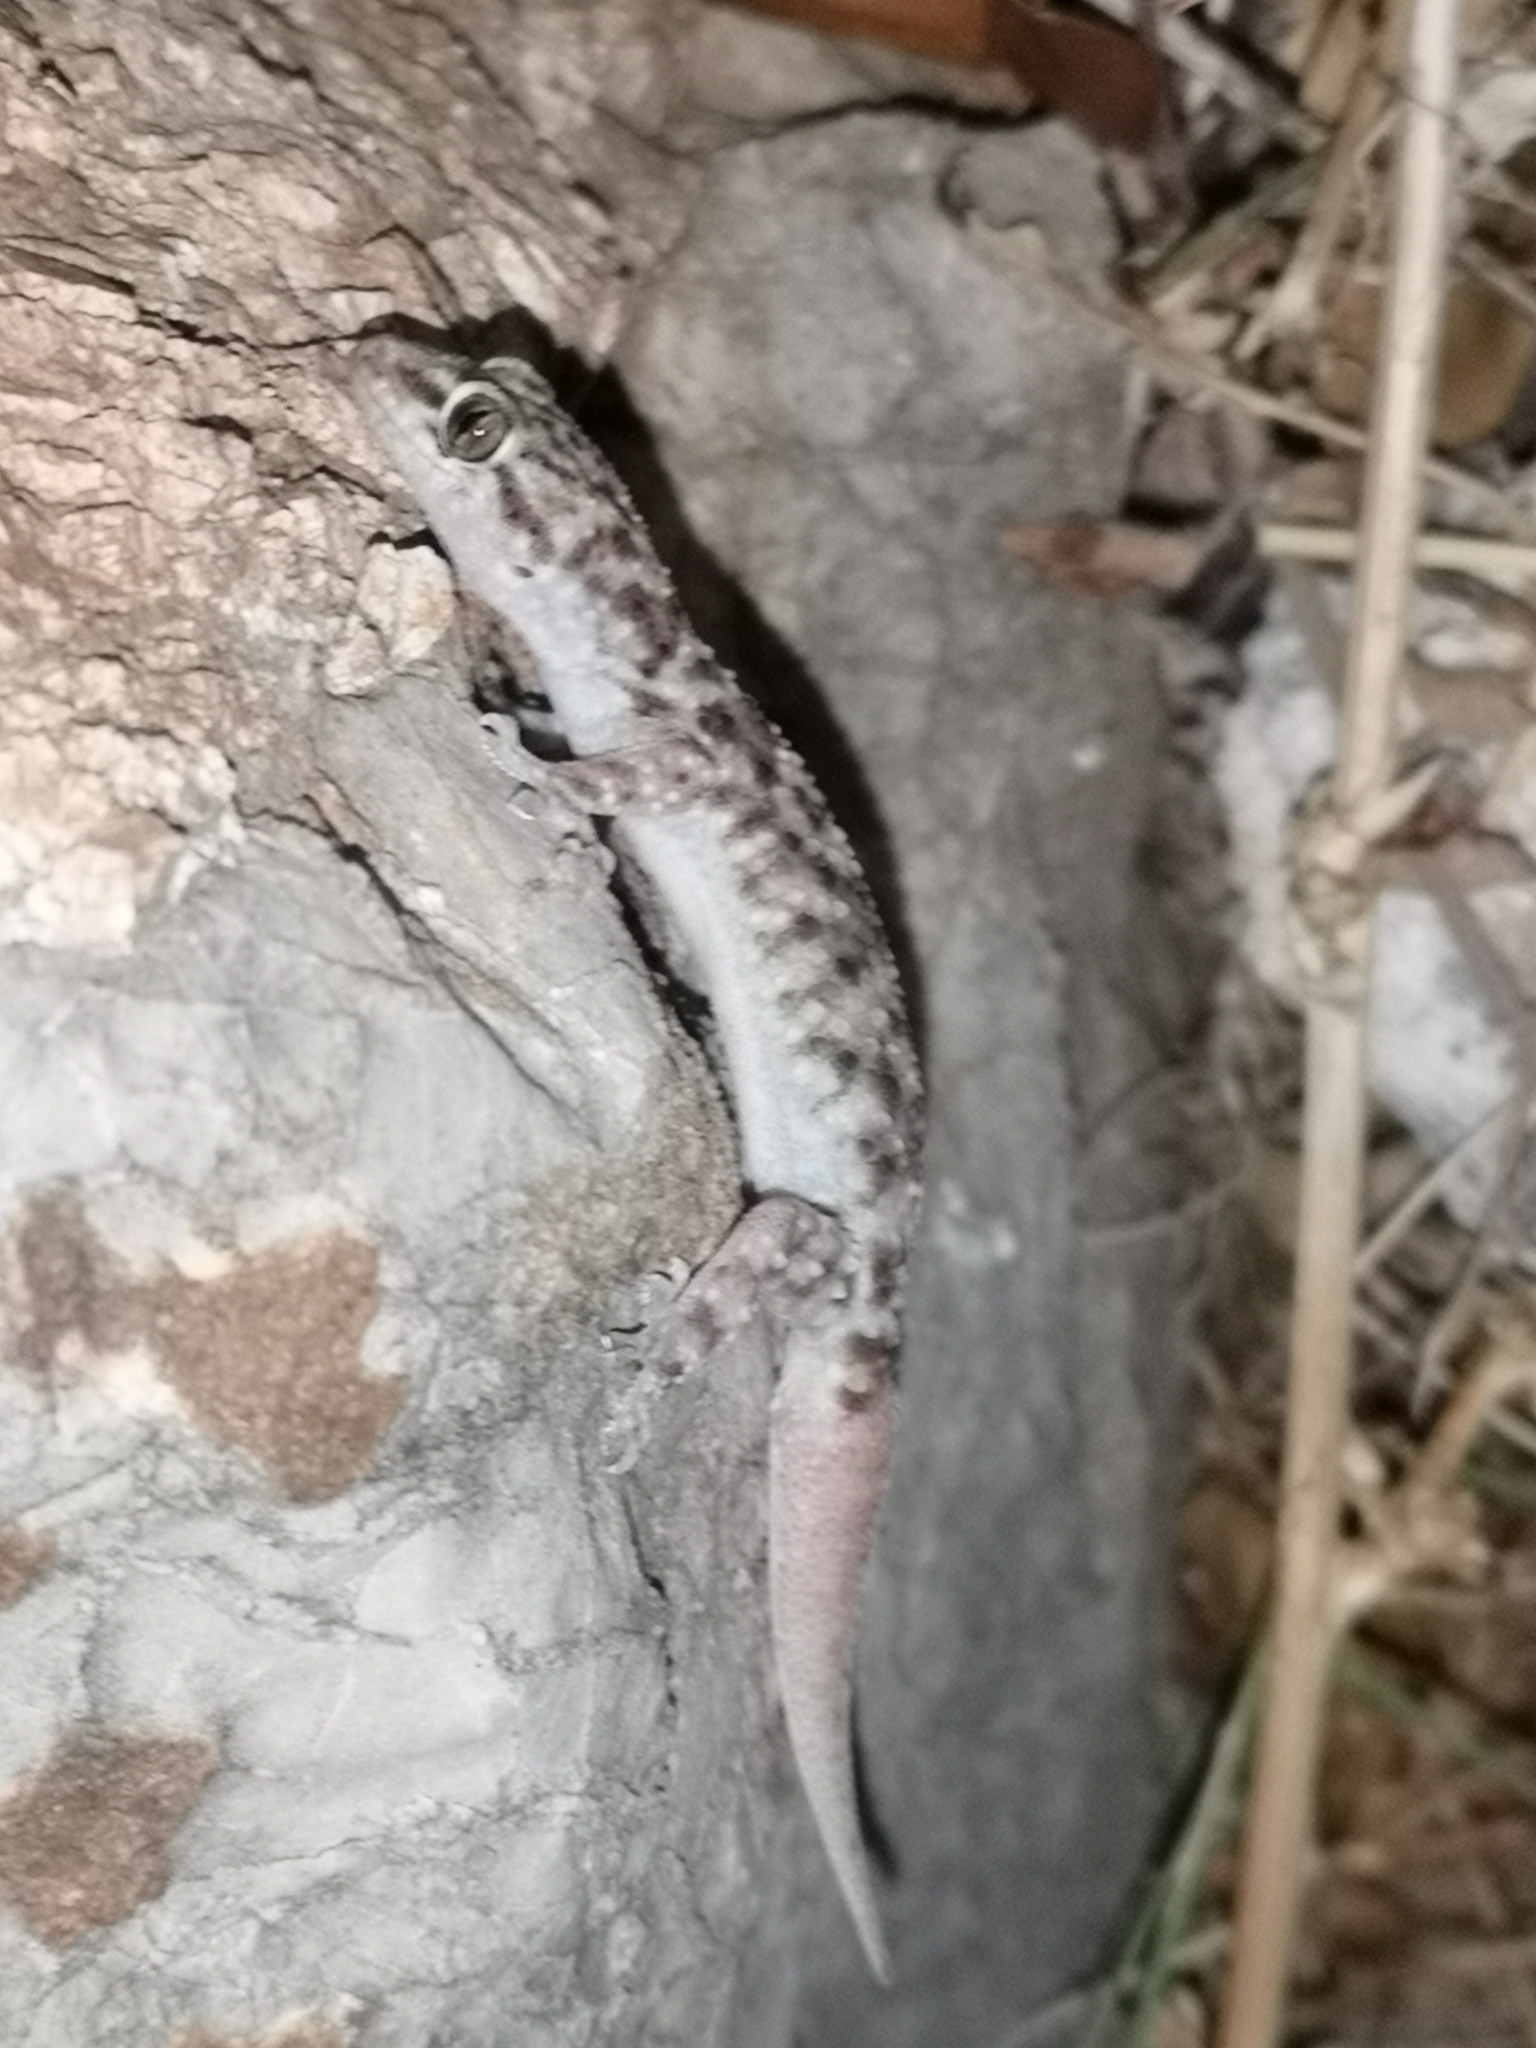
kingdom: Animalia
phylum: Chordata
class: Squamata
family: Gekkonidae
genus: Hemidactylus
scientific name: Hemidactylus turcicus
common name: Turkish gecko
